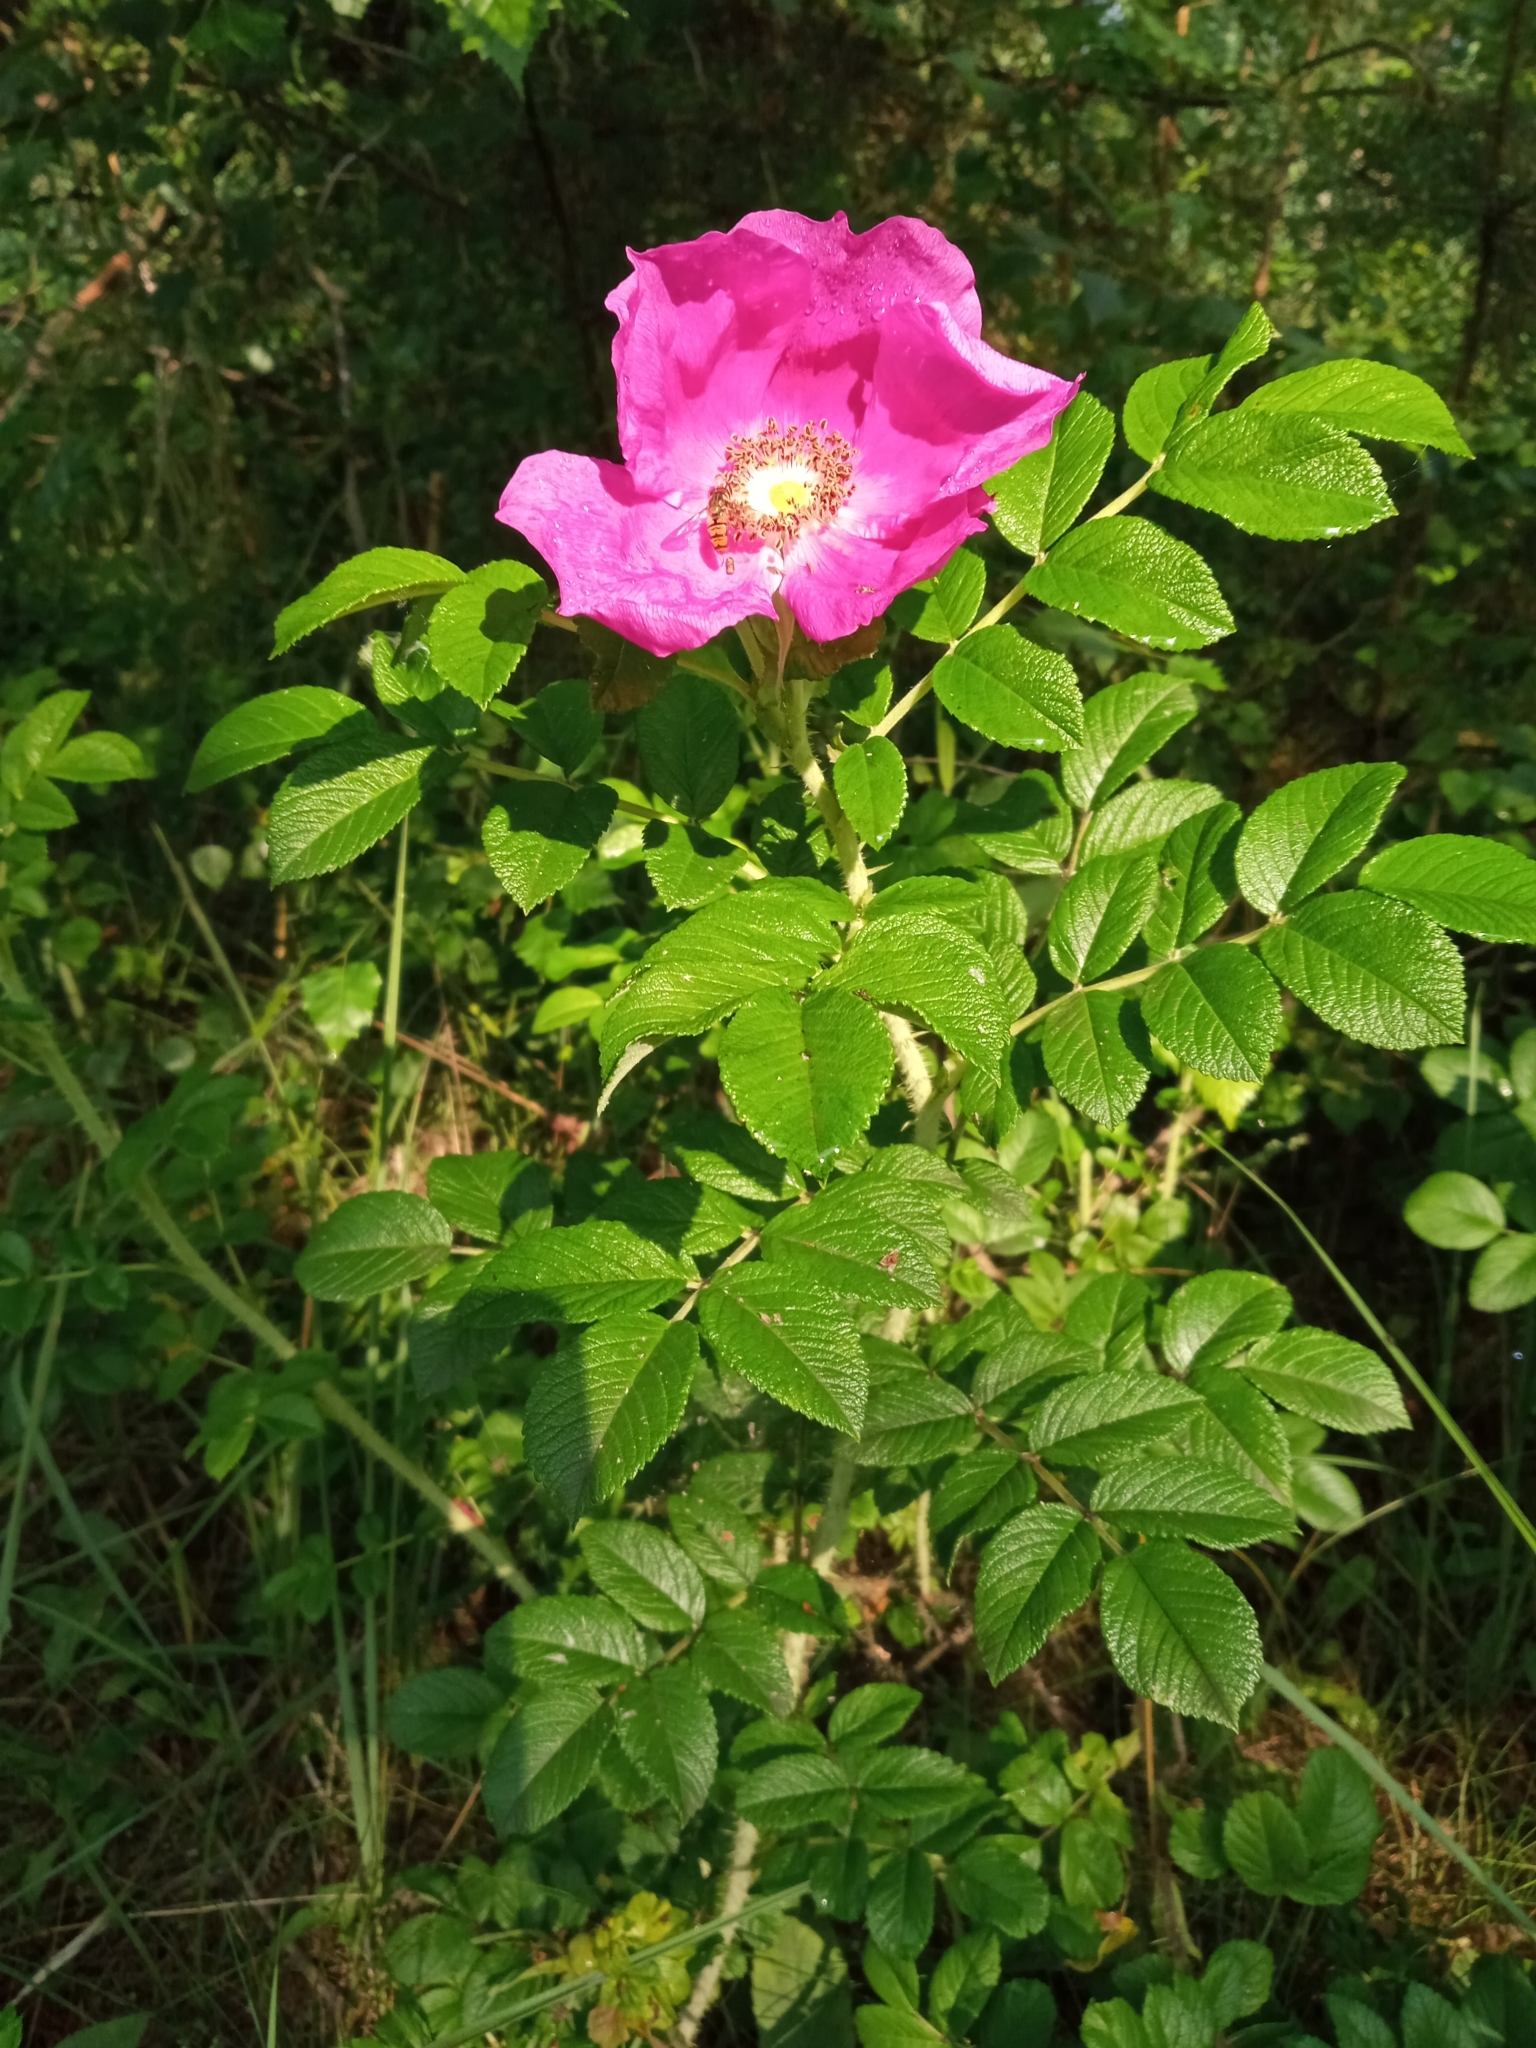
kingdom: Plantae
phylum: Tracheophyta
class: Magnoliopsida
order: Rosales
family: Rosaceae
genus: Rosa
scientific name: Rosa rugosa
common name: Japanese rose
